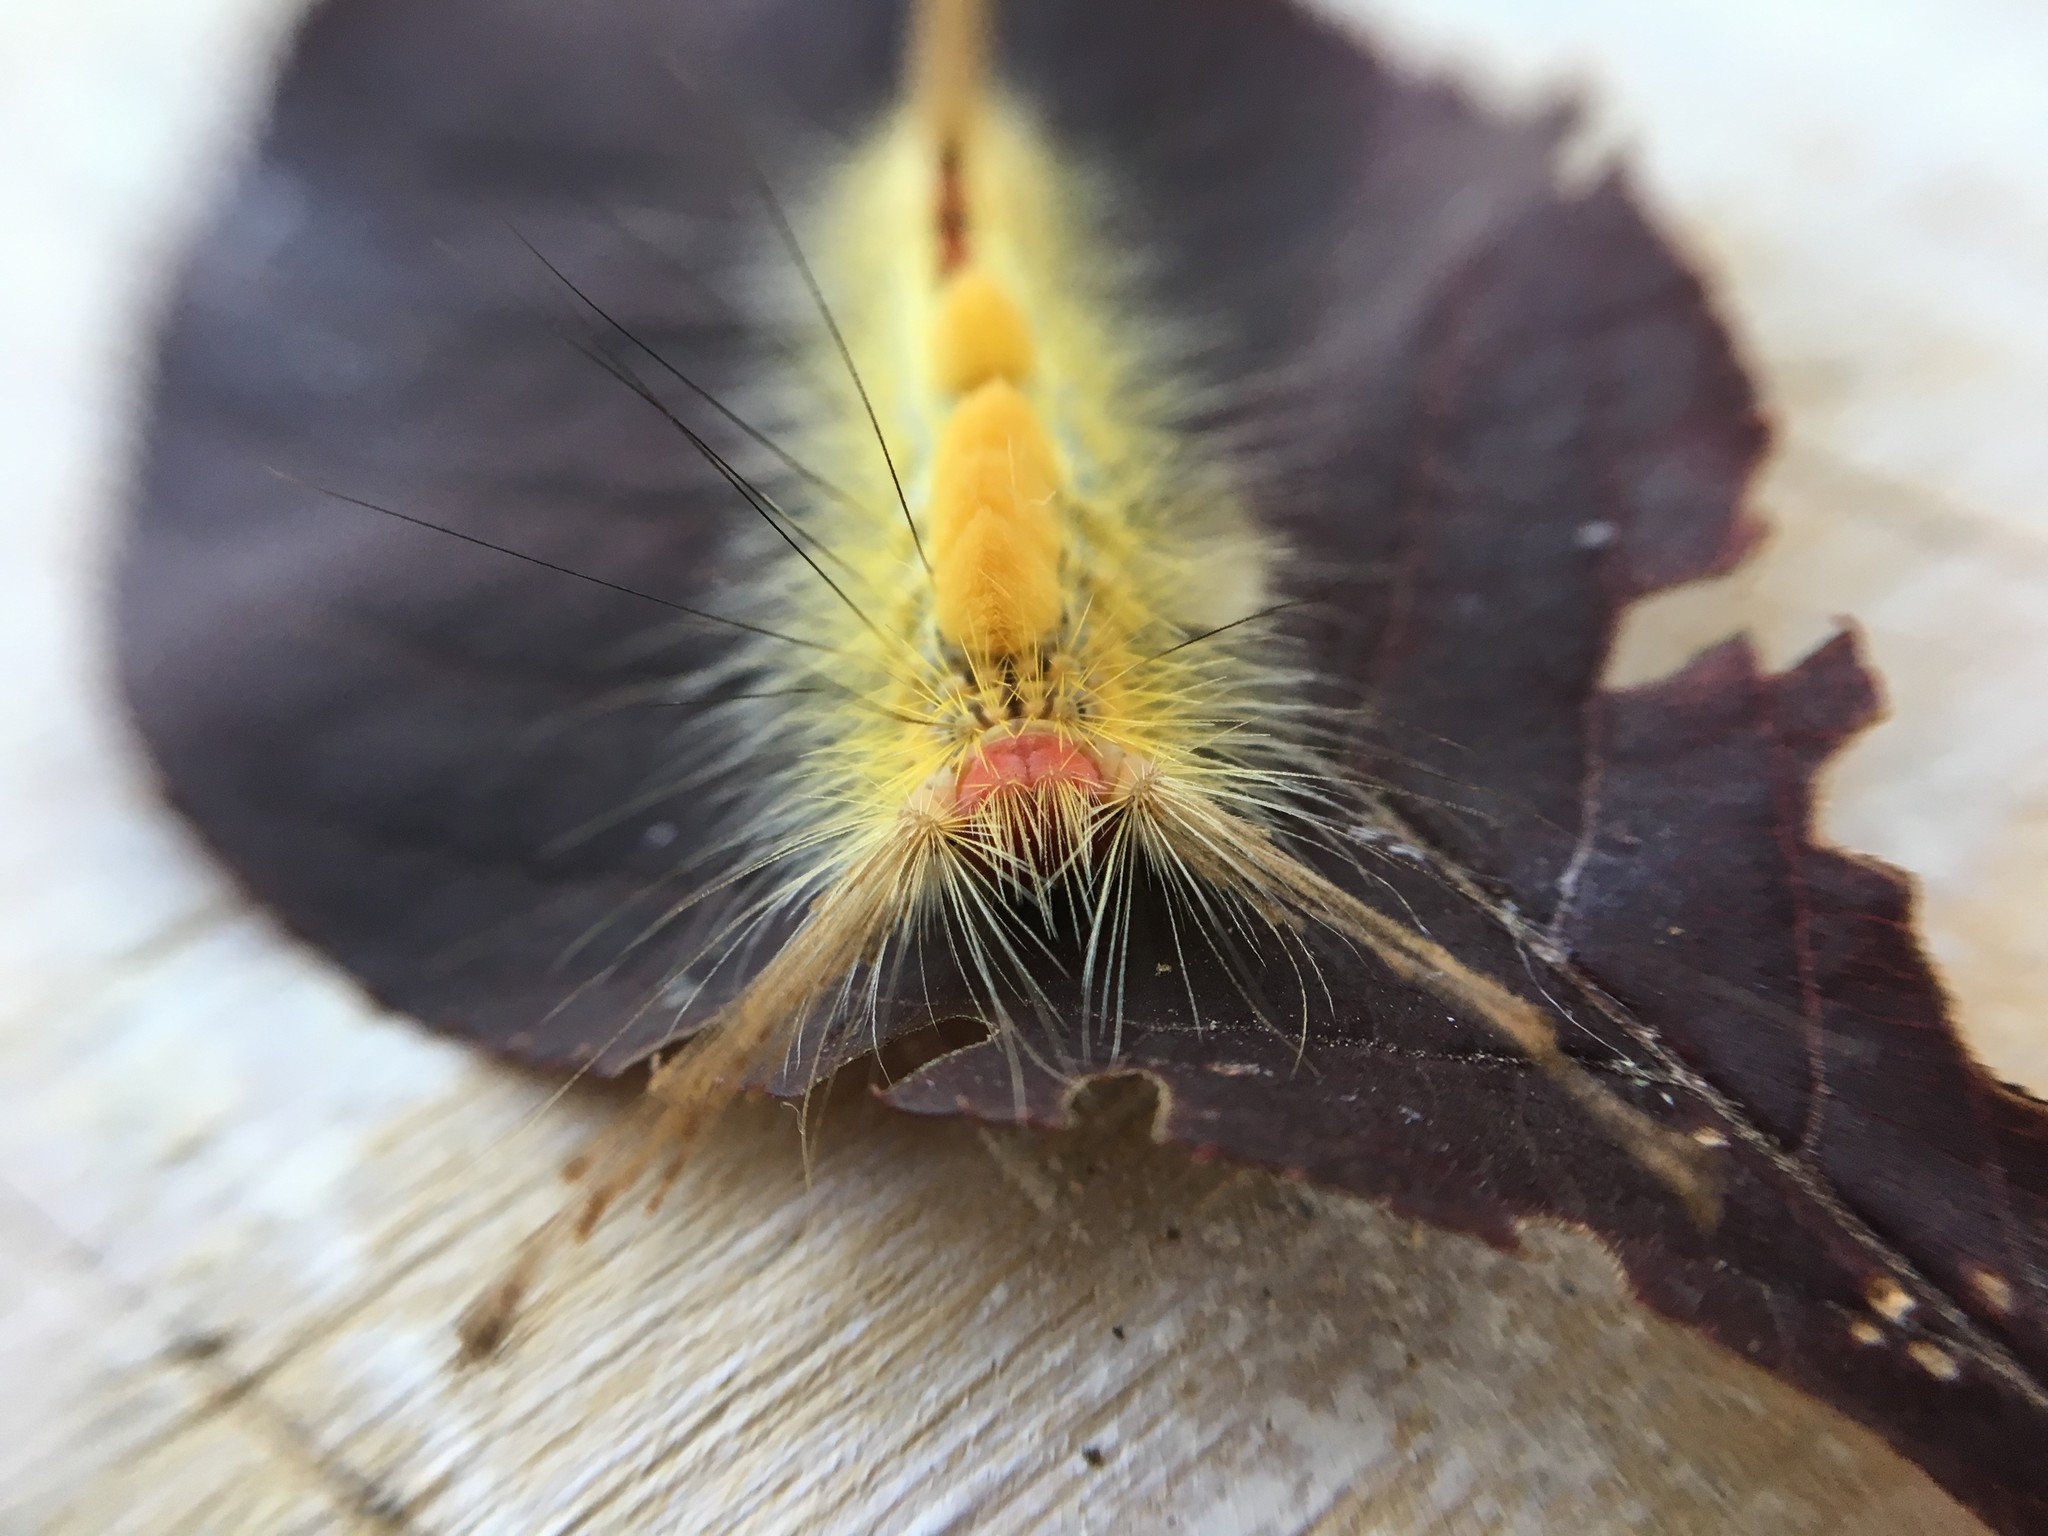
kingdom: Animalia
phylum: Arthropoda
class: Insecta
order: Lepidoptera
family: Erebidae
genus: Orgyia
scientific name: Orgyia leucostigma
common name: White-marked tussock moth
